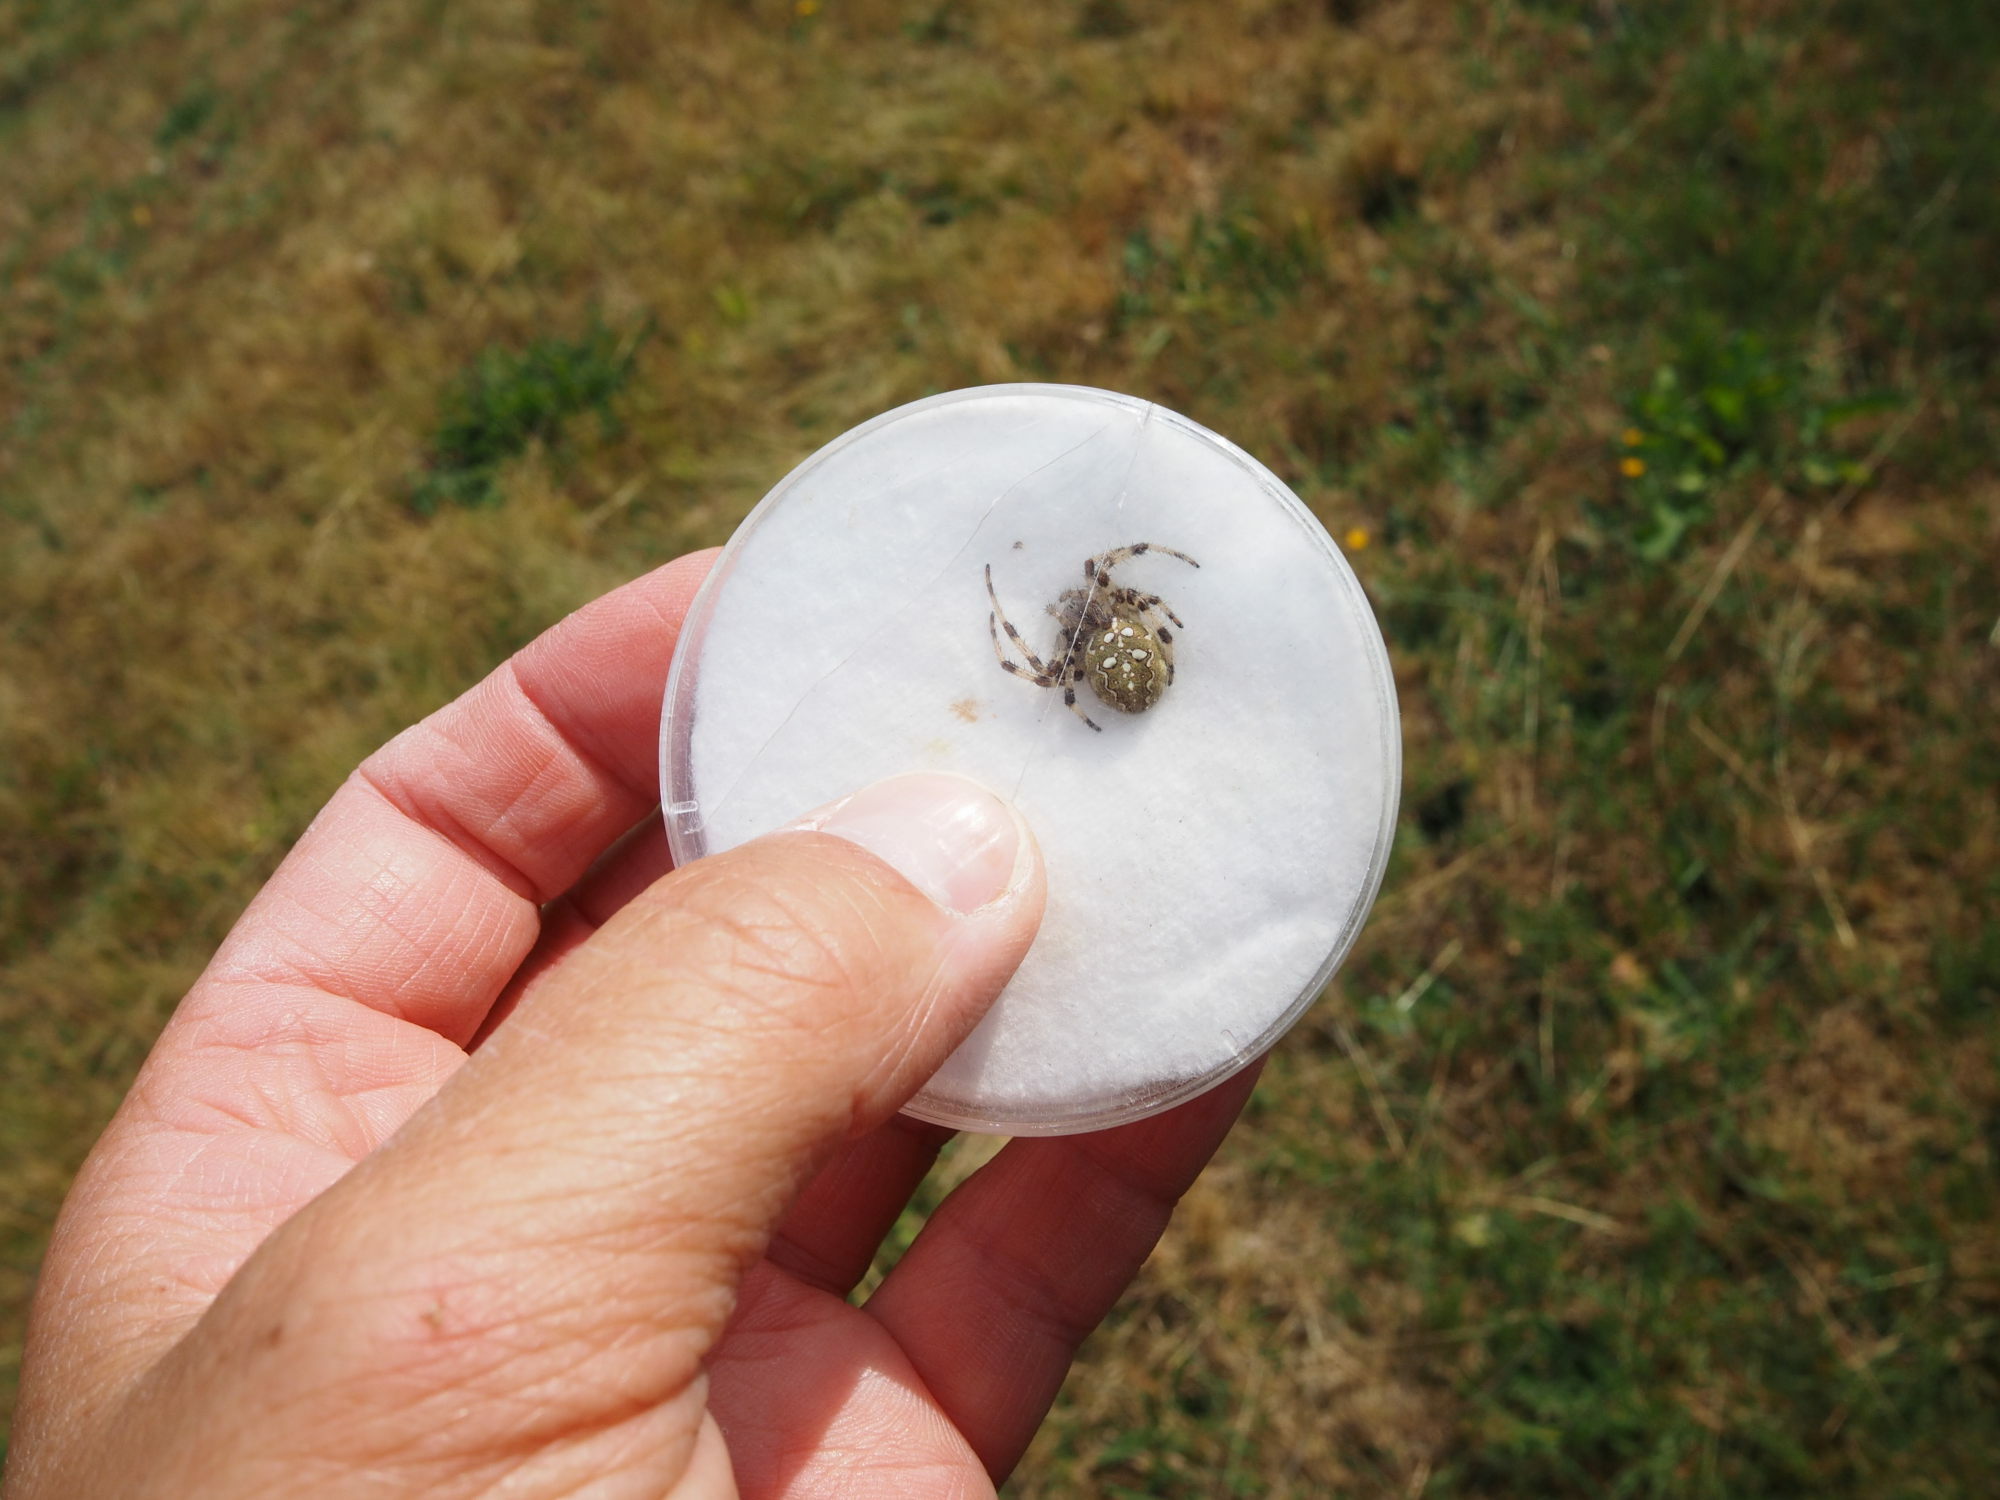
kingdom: Animalia
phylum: Arthropoda
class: Arachnida
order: Araneae
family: Araneidae
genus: Araneus
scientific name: Araneus quadratus
